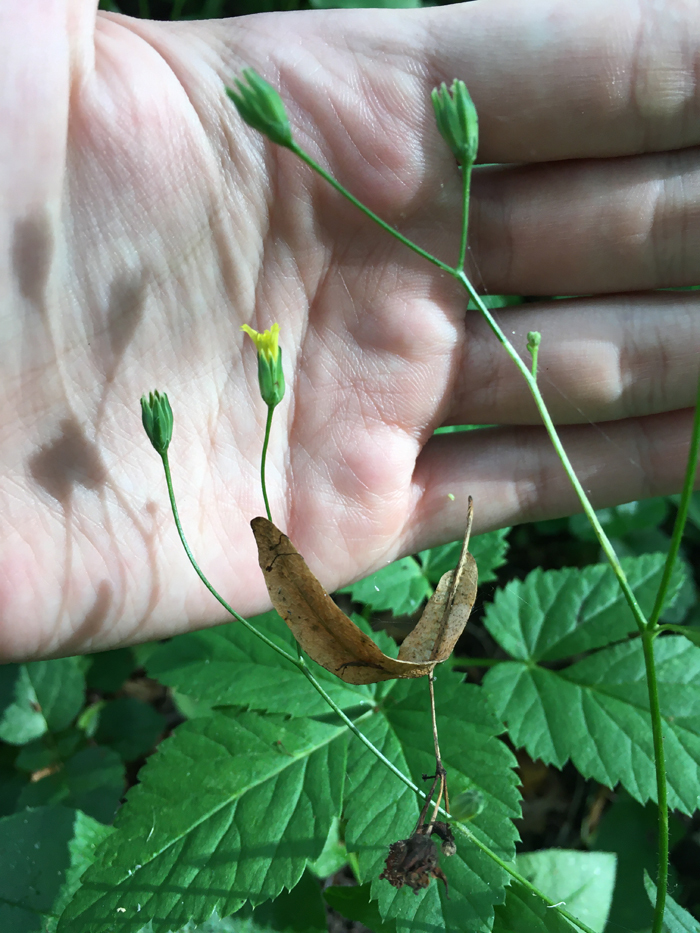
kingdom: Plantae
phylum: Tracheophyta
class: Magnoliopsida
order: Asterales
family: Asteraceae
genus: Lapsana
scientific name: Lapsana communis
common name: Nipplewort
